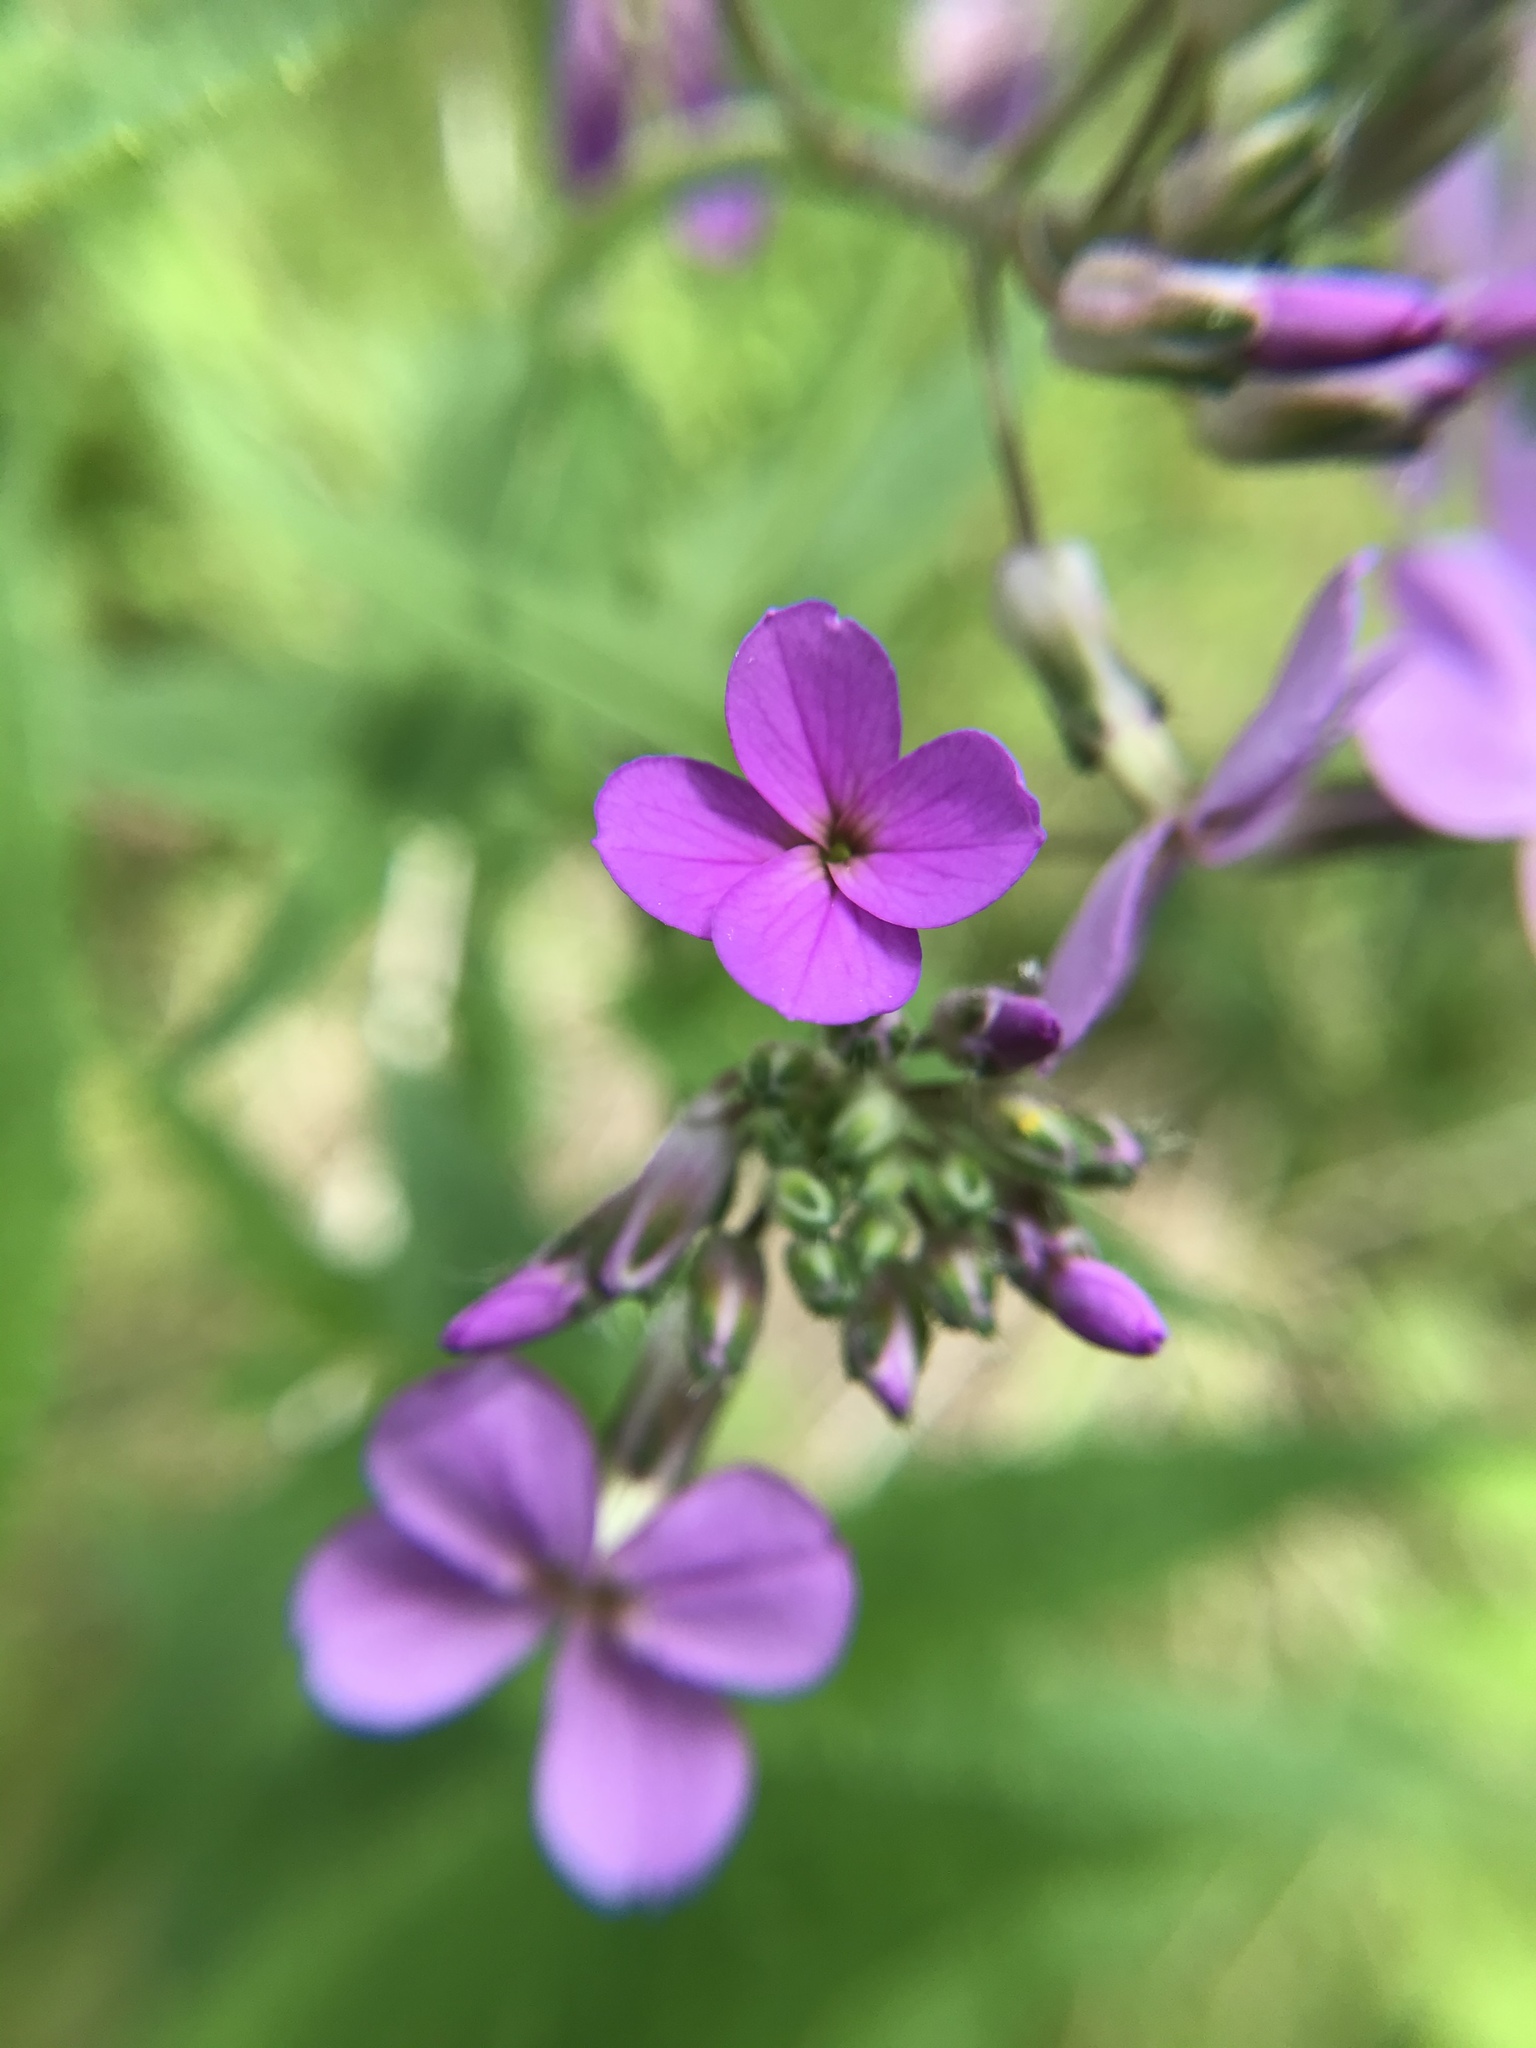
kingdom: Plantae
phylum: Tracheophyta
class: Magnoliopsida
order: Brassicales
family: Brassicaceae
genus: Hesperis
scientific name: Hesperis matronalis
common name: Dame's-violet
